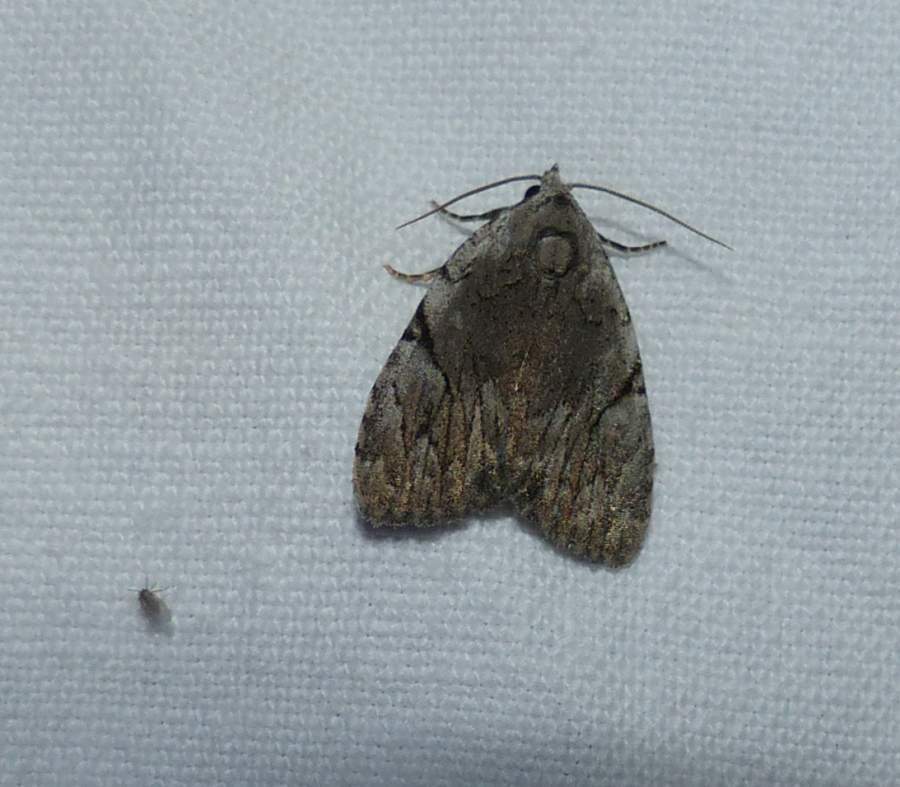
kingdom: Animalia
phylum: Arthropoda
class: Insecta
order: Lepidoptera
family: Noctuidae
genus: Balsa
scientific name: Balsa malana
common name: Many-dotted appleworm moth
